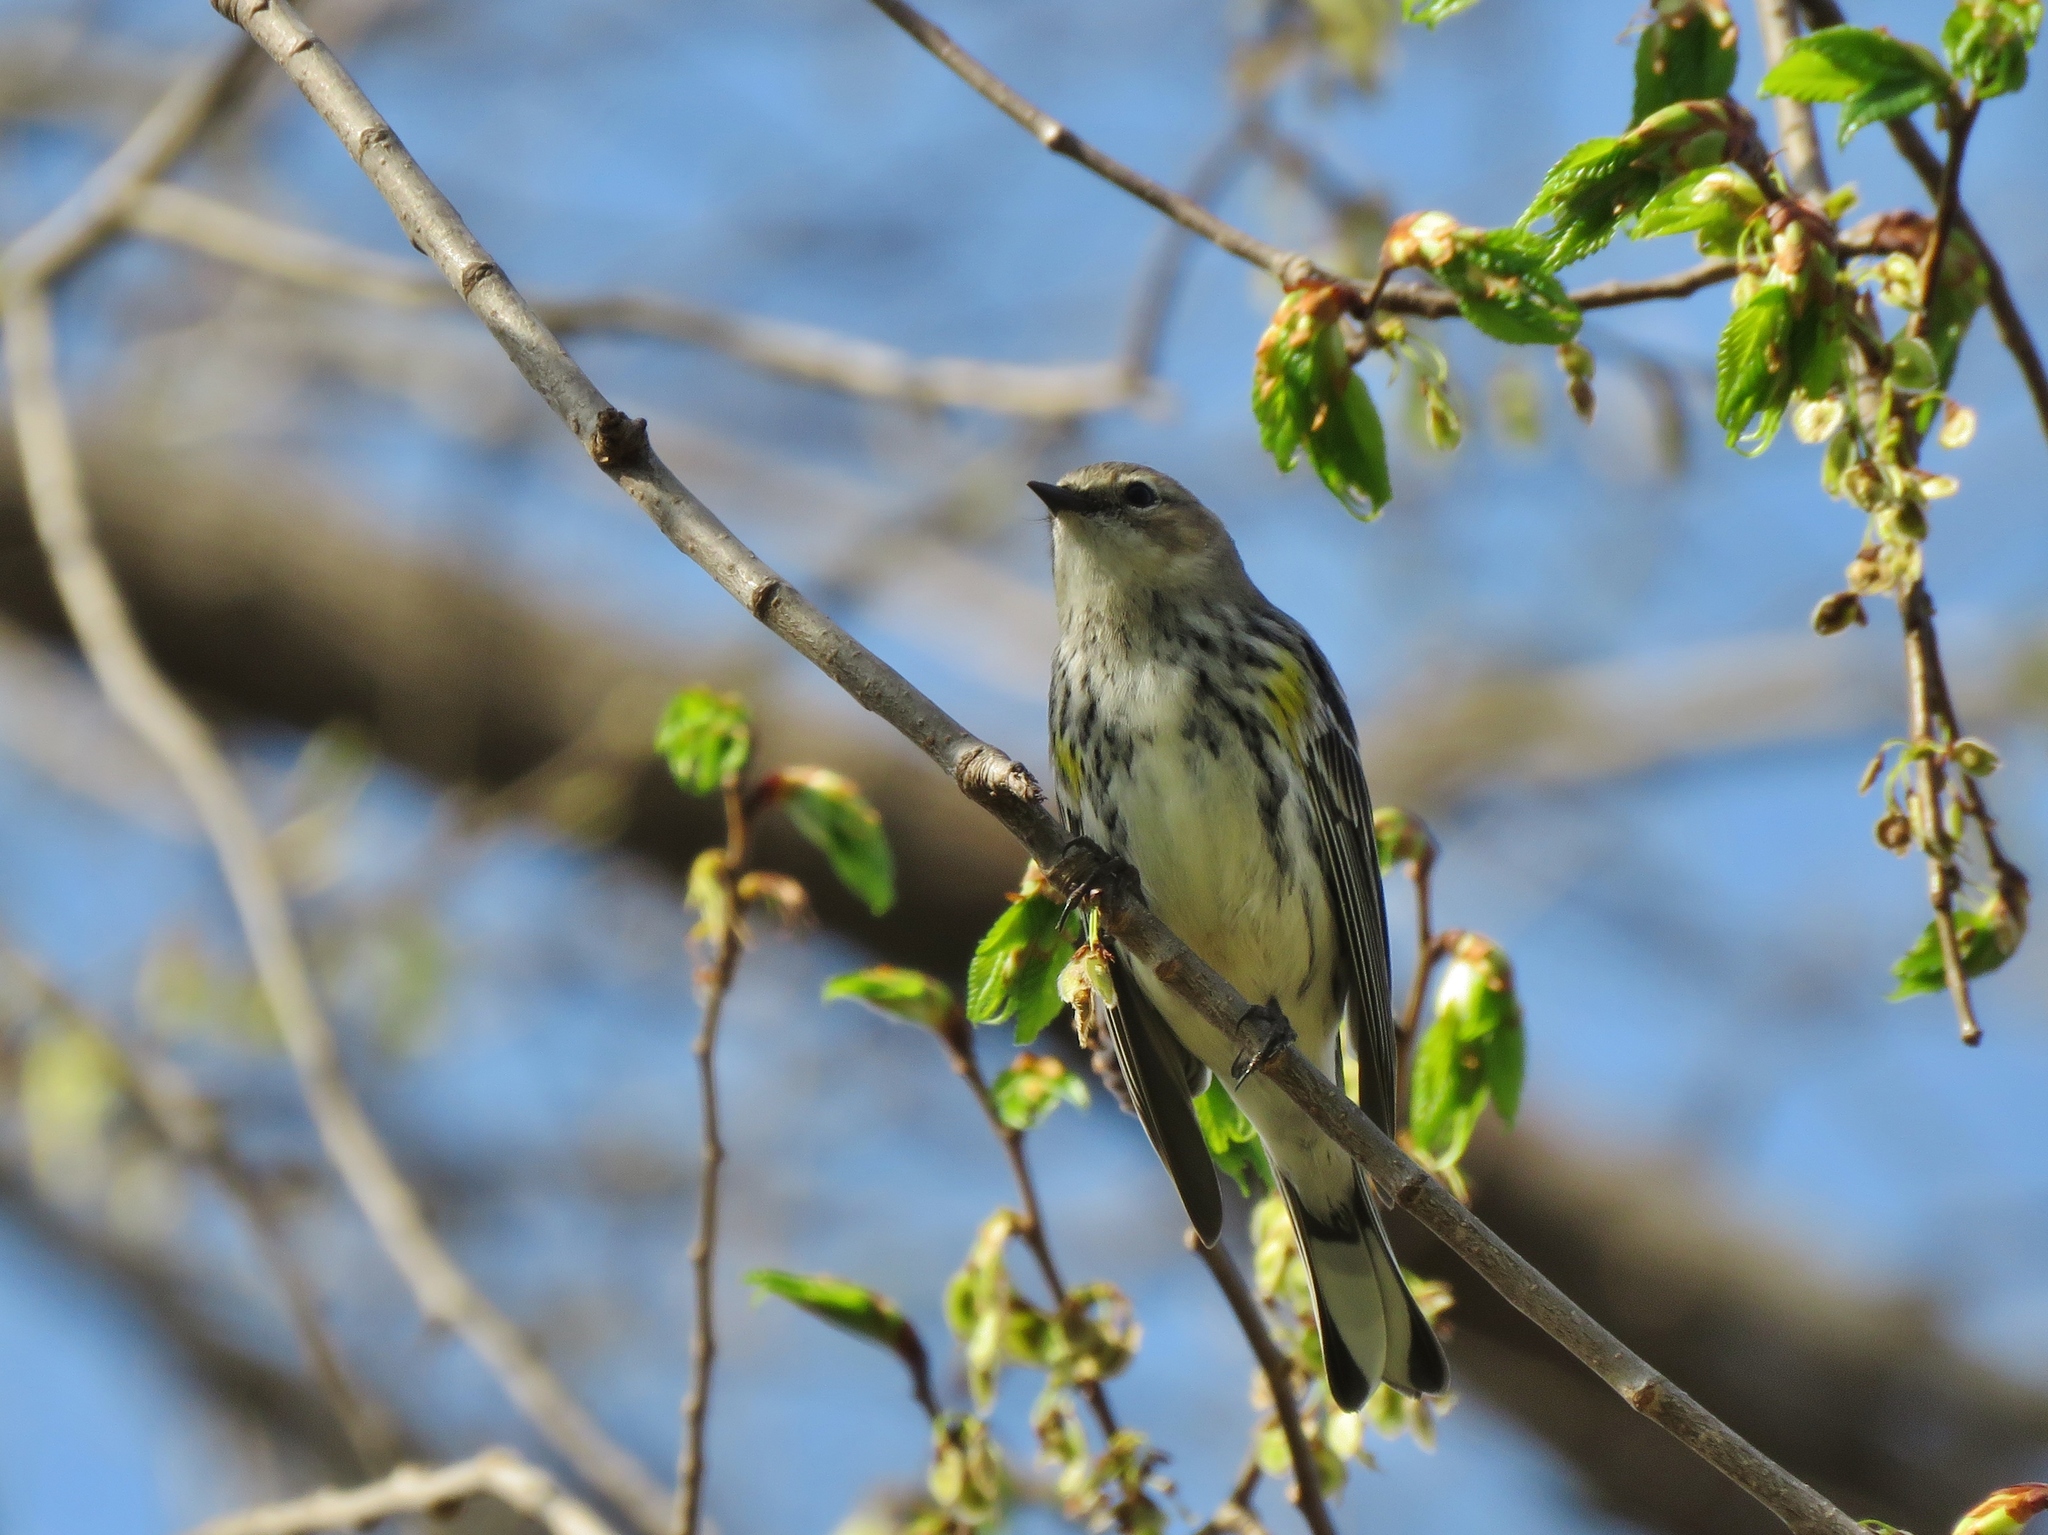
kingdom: Animalia
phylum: Chordata
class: Aves
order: Passeriformes
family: Parulidae
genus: Setophaga
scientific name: Setophaga coronata
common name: Myrtle warbler
